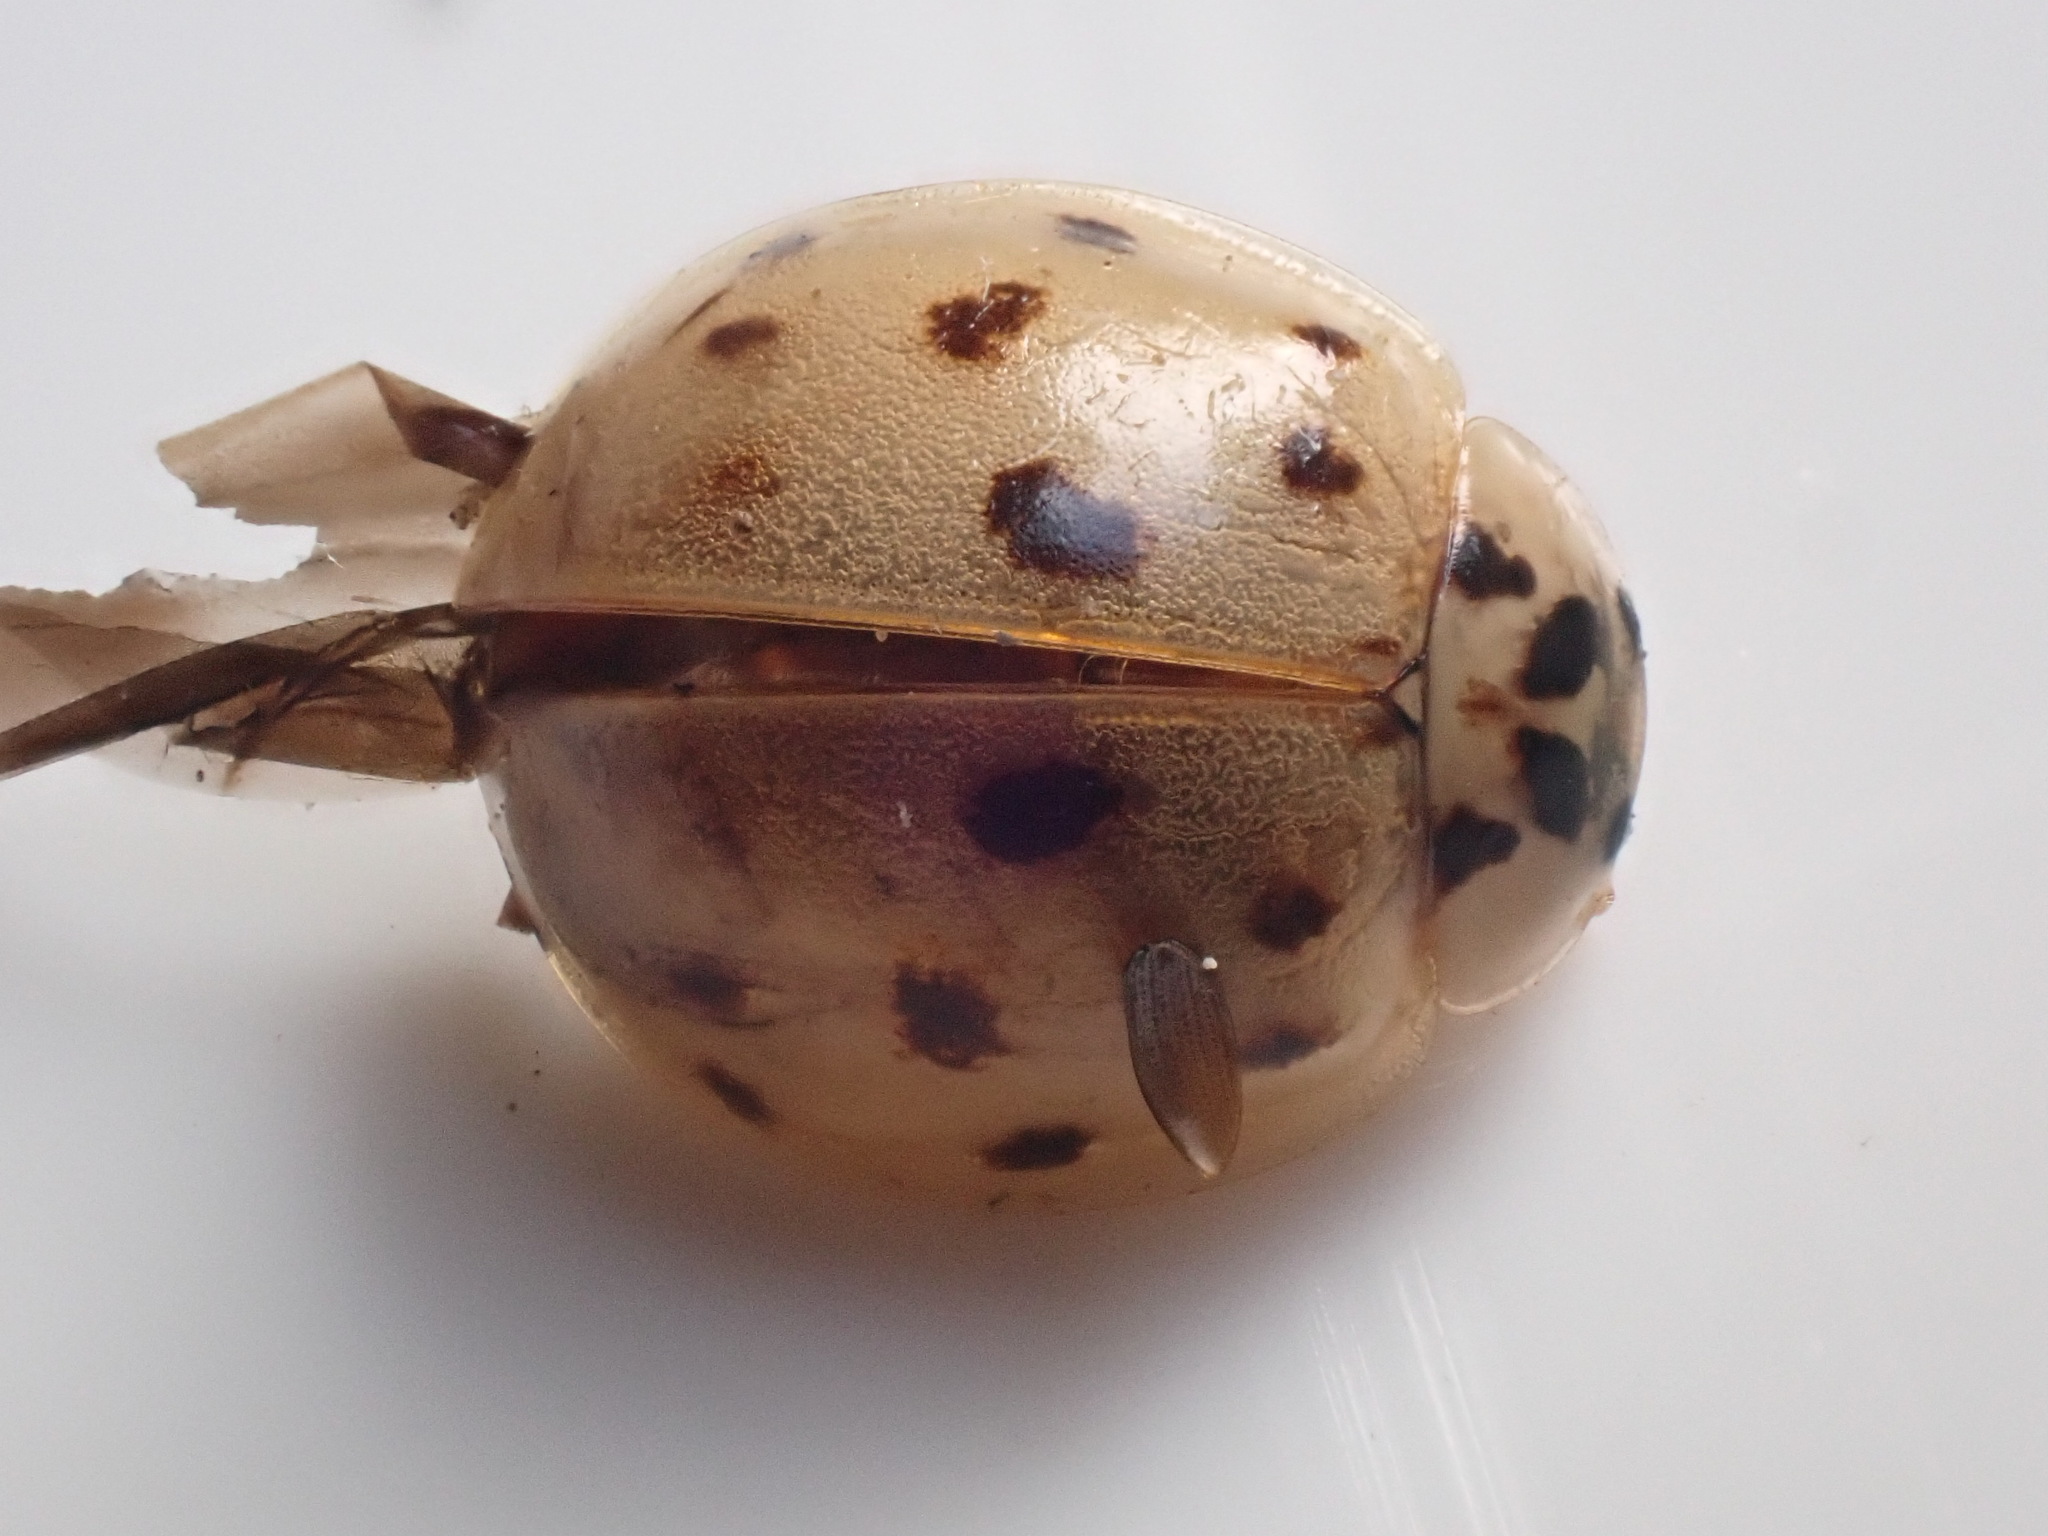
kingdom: Animalia
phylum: Arthropoda
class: Insecta
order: Coleoptera
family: Coccinellidae
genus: Harmonia
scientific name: Harmonia axyridis
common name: Harlequin ladybird
